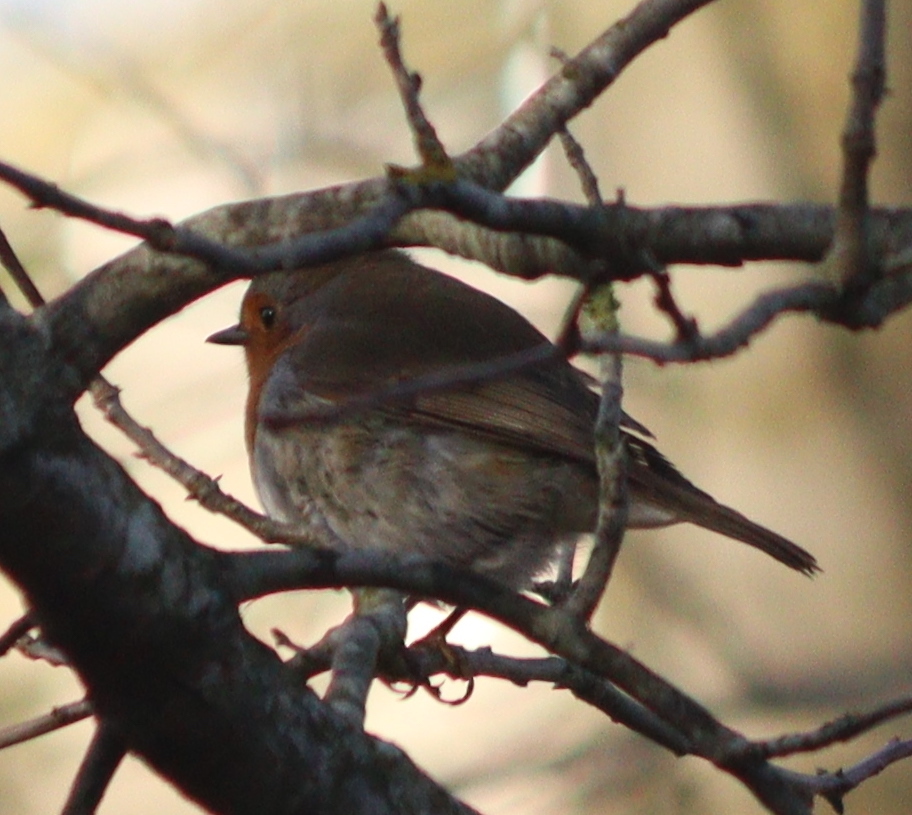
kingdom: Animalia
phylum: Chordata
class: Aves
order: Passeriformes
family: Muscicapidae
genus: Erithacus
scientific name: Erithacus rubecula
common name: European robin
